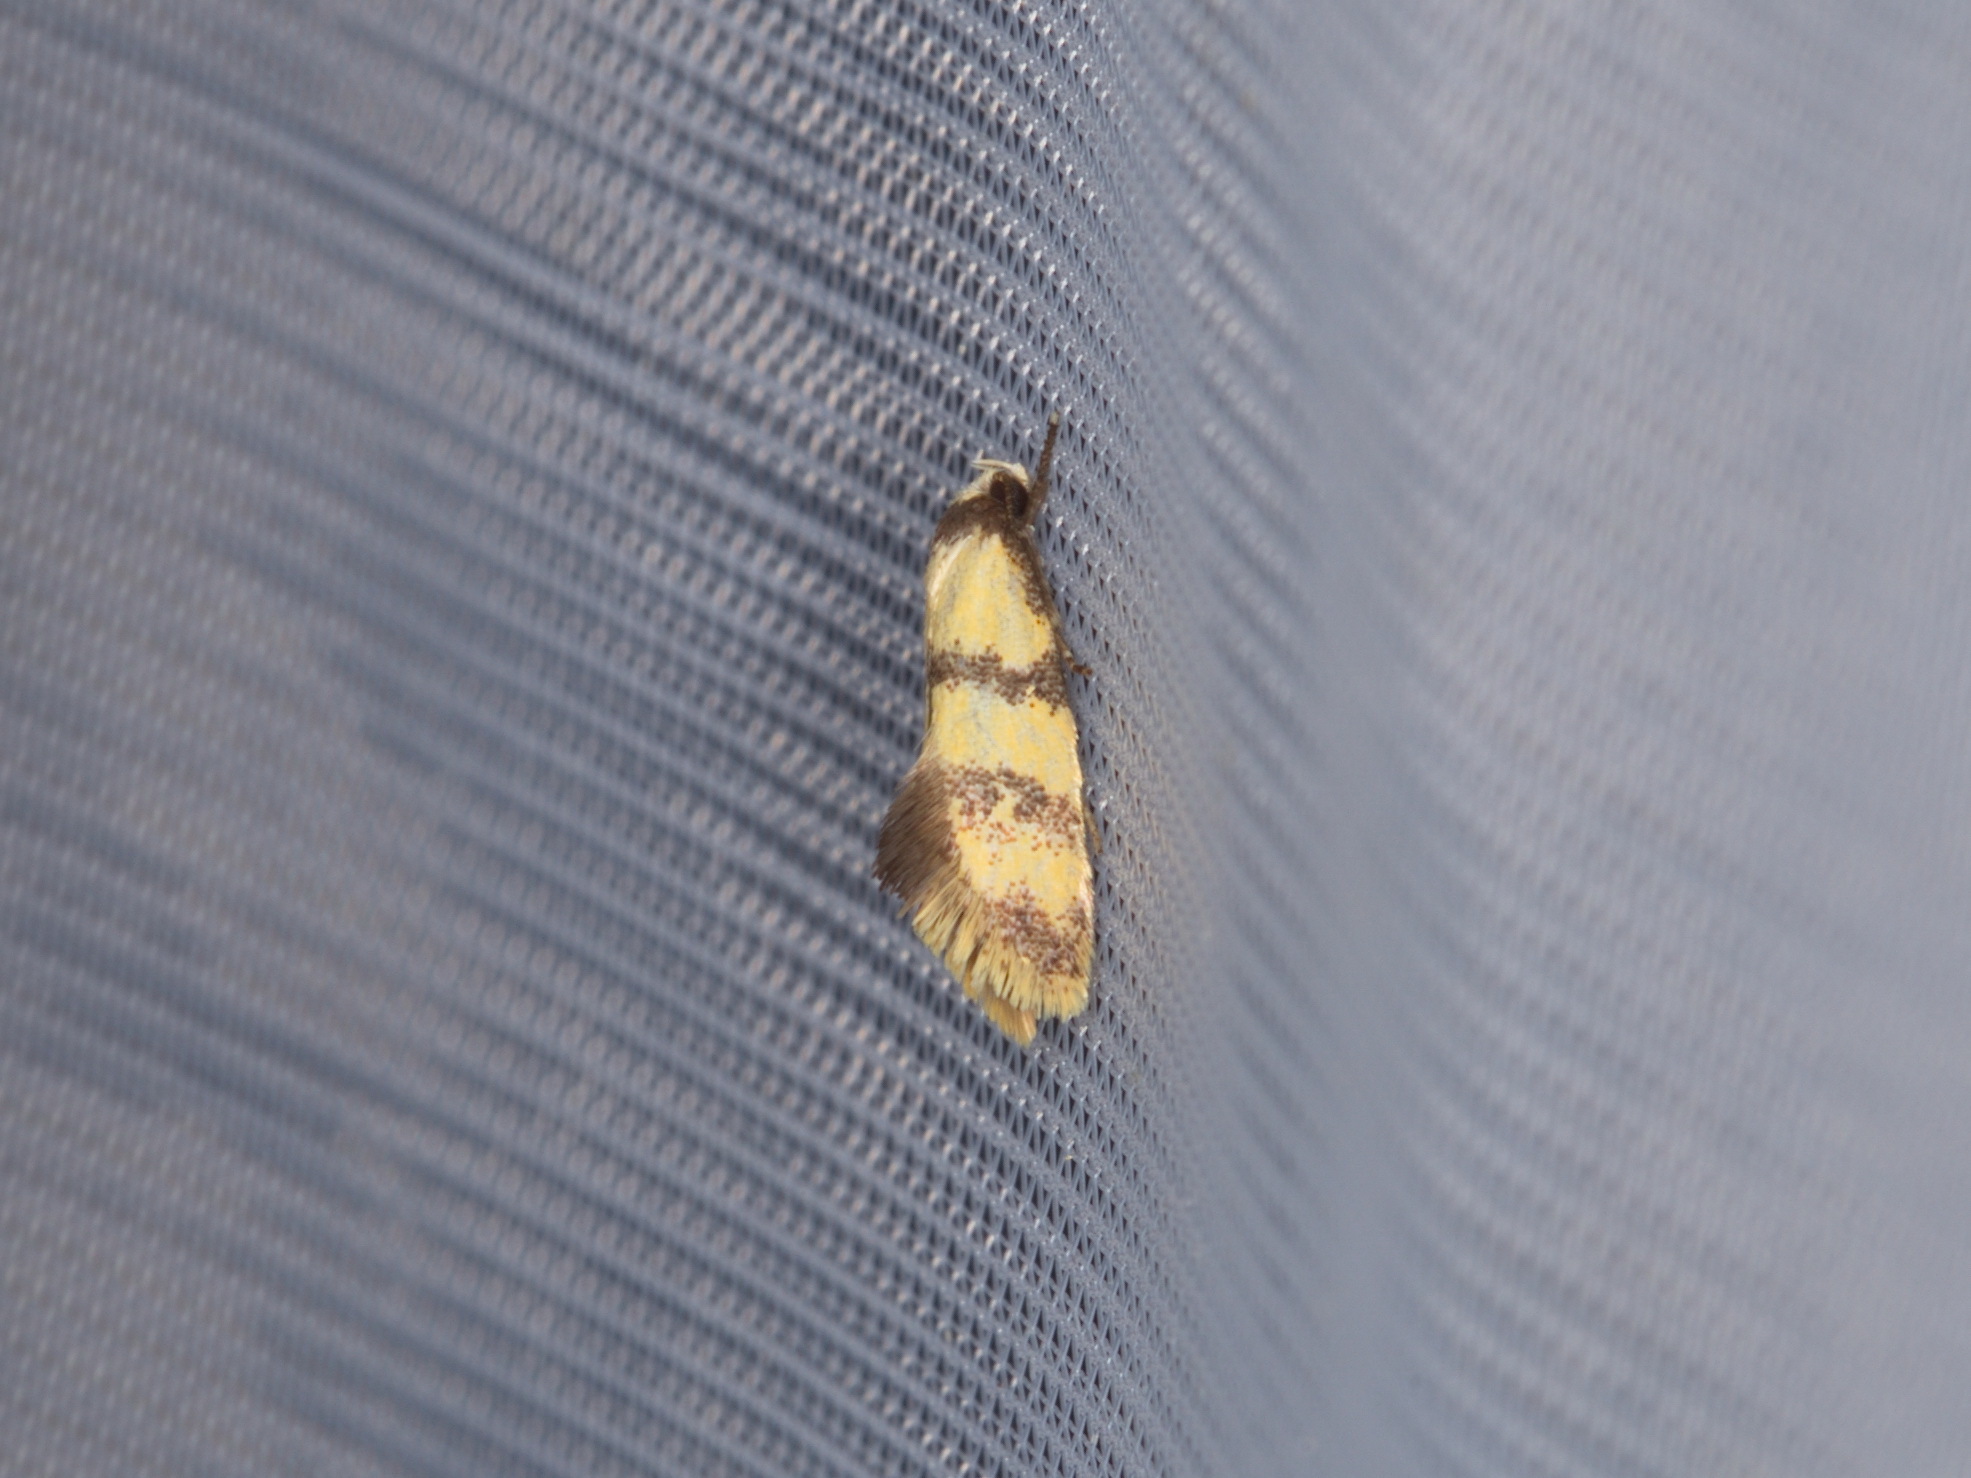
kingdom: Animalia
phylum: Arthropoda
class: Insecta
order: Lepidoptera
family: Oecophoridae
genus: Psaroxantha
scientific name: Psaroxantha basilica
